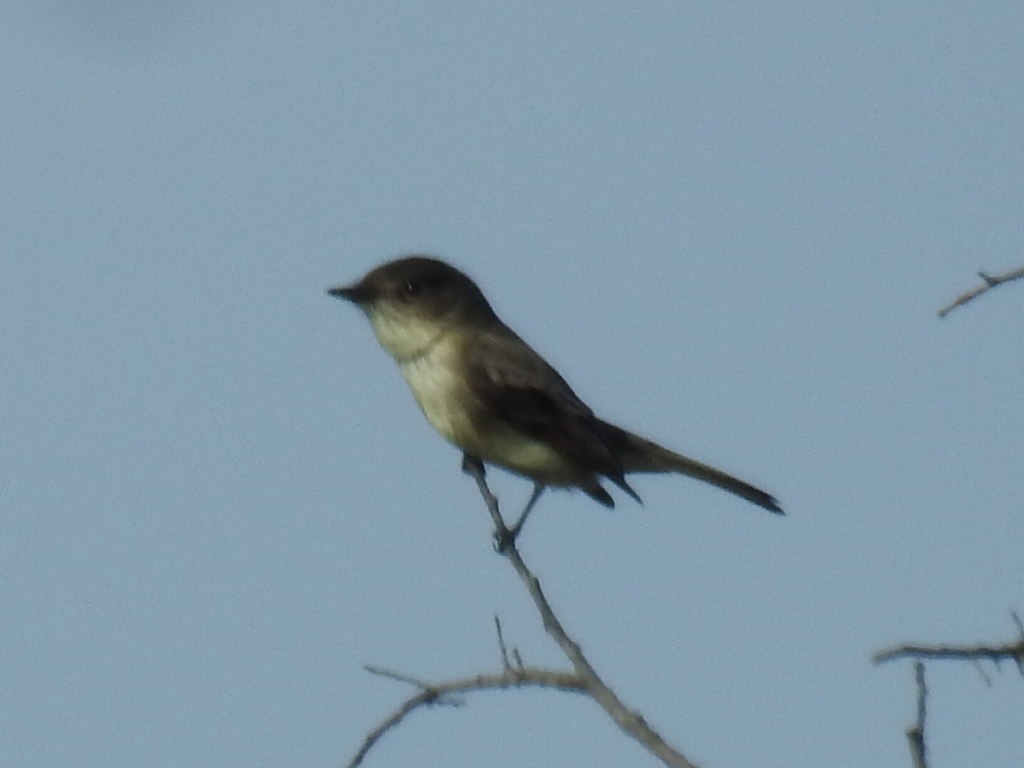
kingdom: Animalia
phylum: Chordata
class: Aves
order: Passeriformes
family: Tyrannidae
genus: Sayornis
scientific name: Sayornis phoebe
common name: Eastern phoebe
